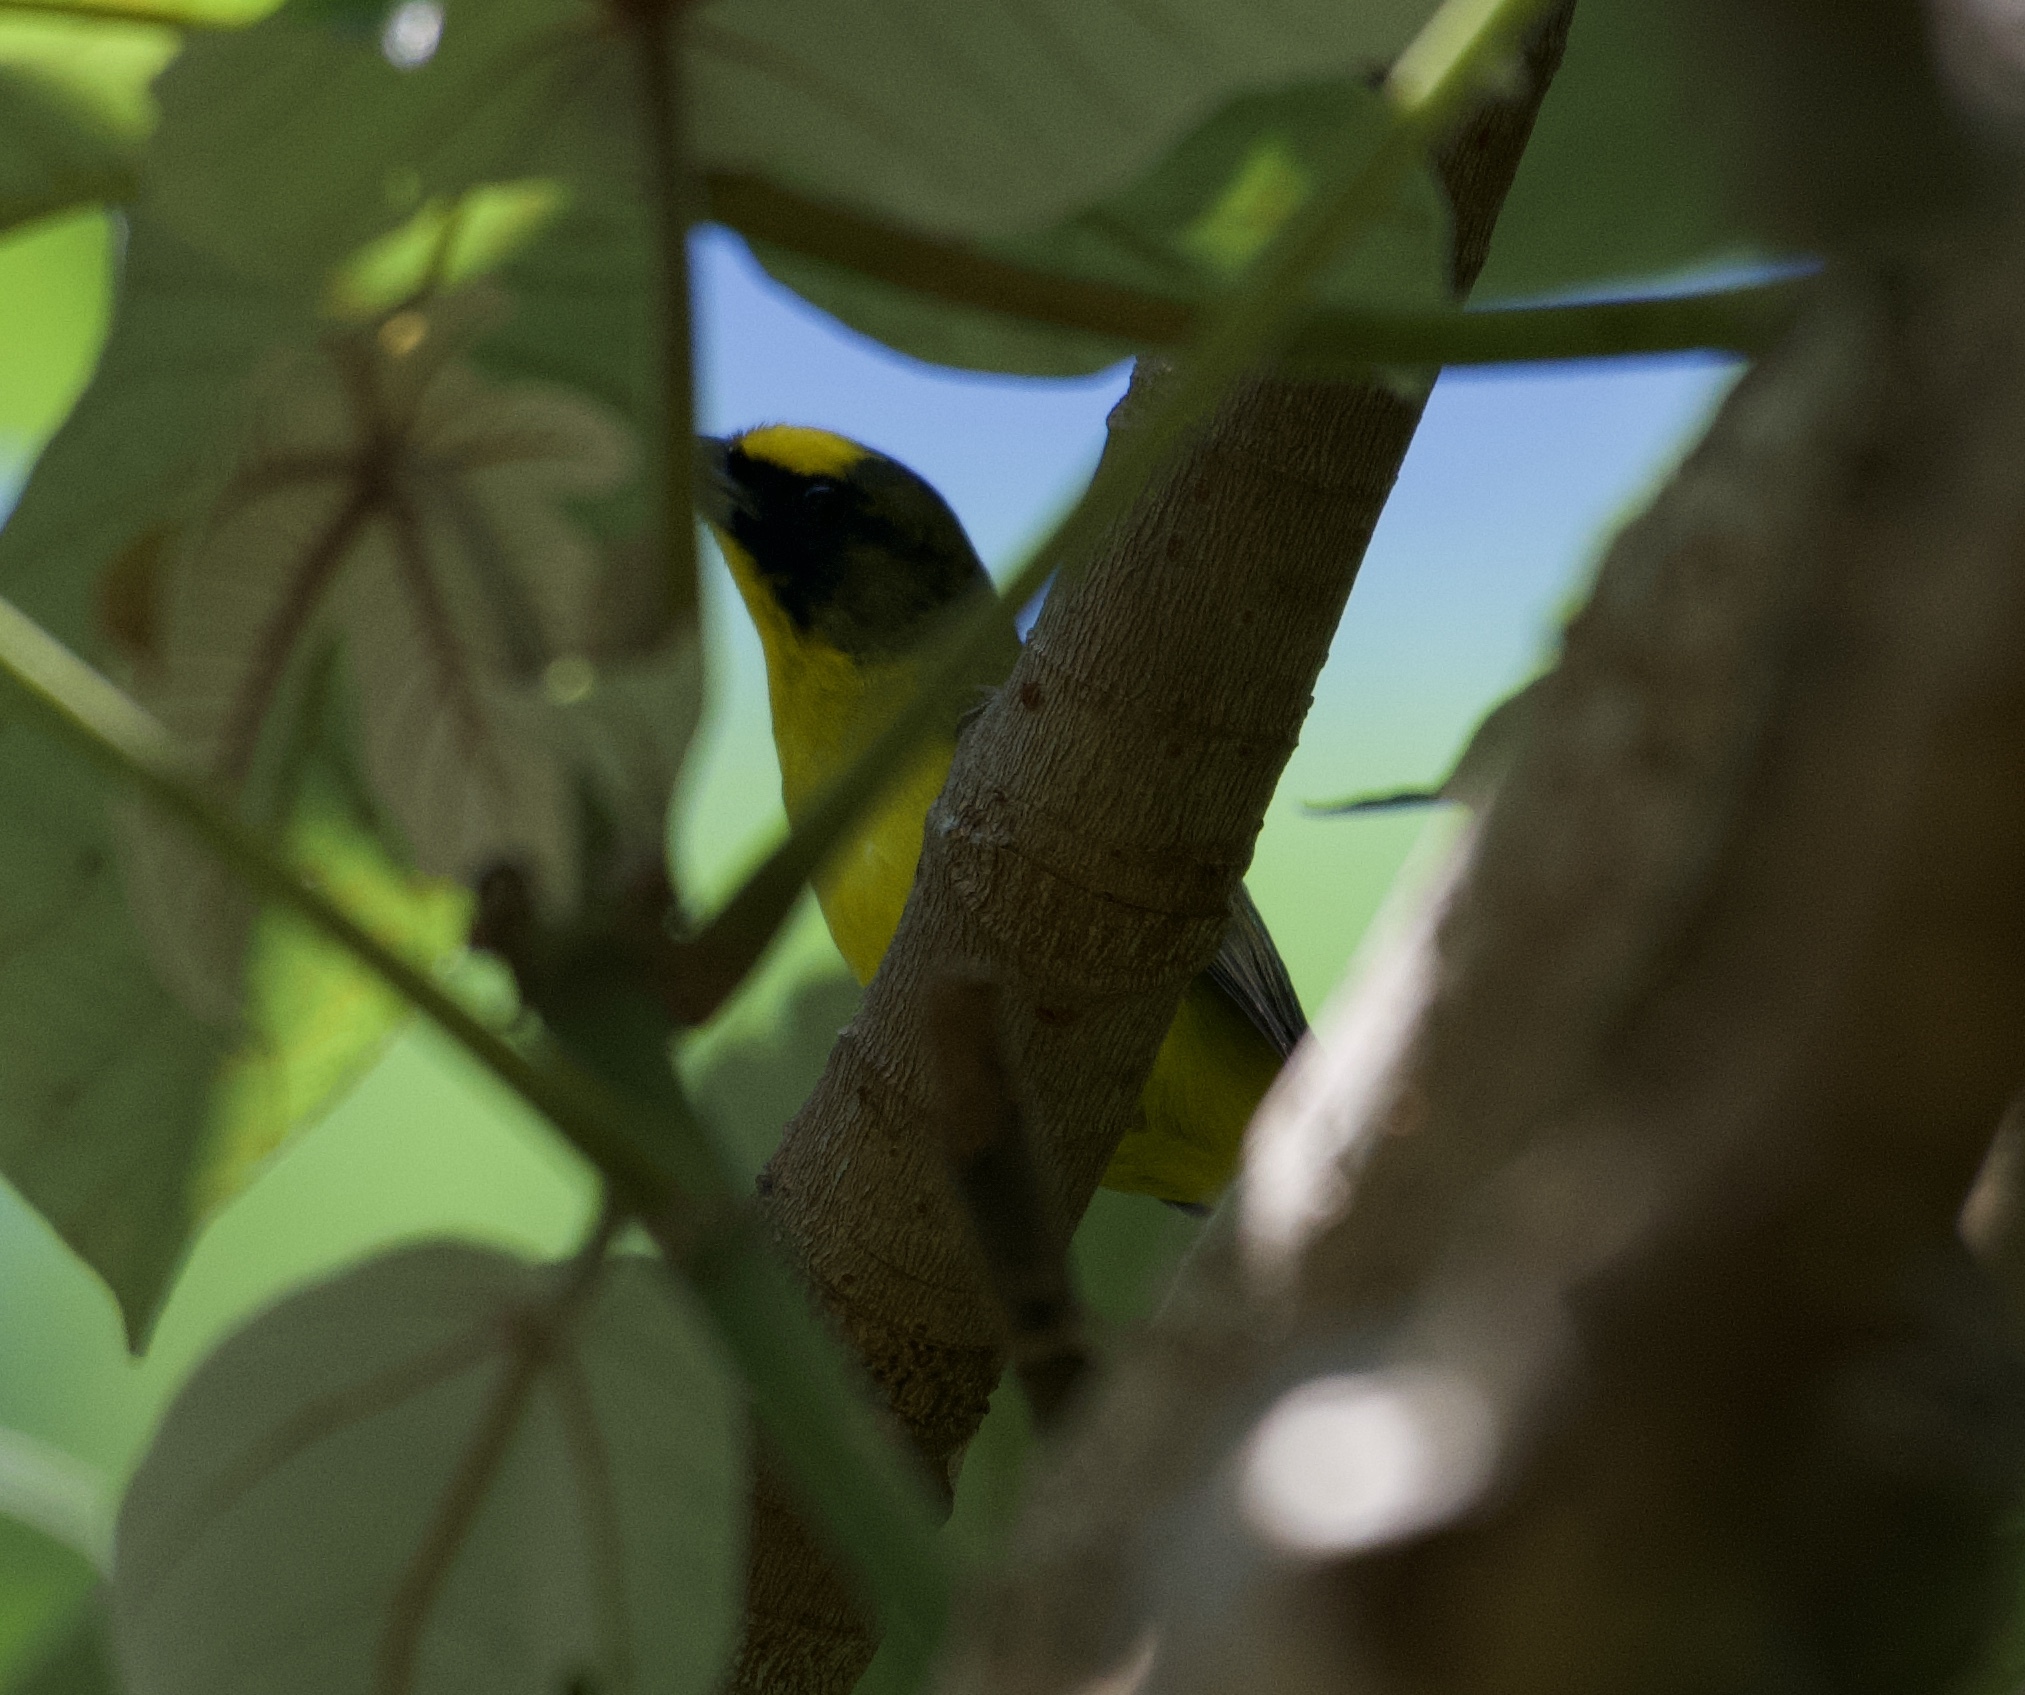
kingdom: Animalia
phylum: Chordata
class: Aves
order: Passeriformes
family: Fringillidae
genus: Euphonia
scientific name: Euphonia laniirostris
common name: Thick-billed euphonia
